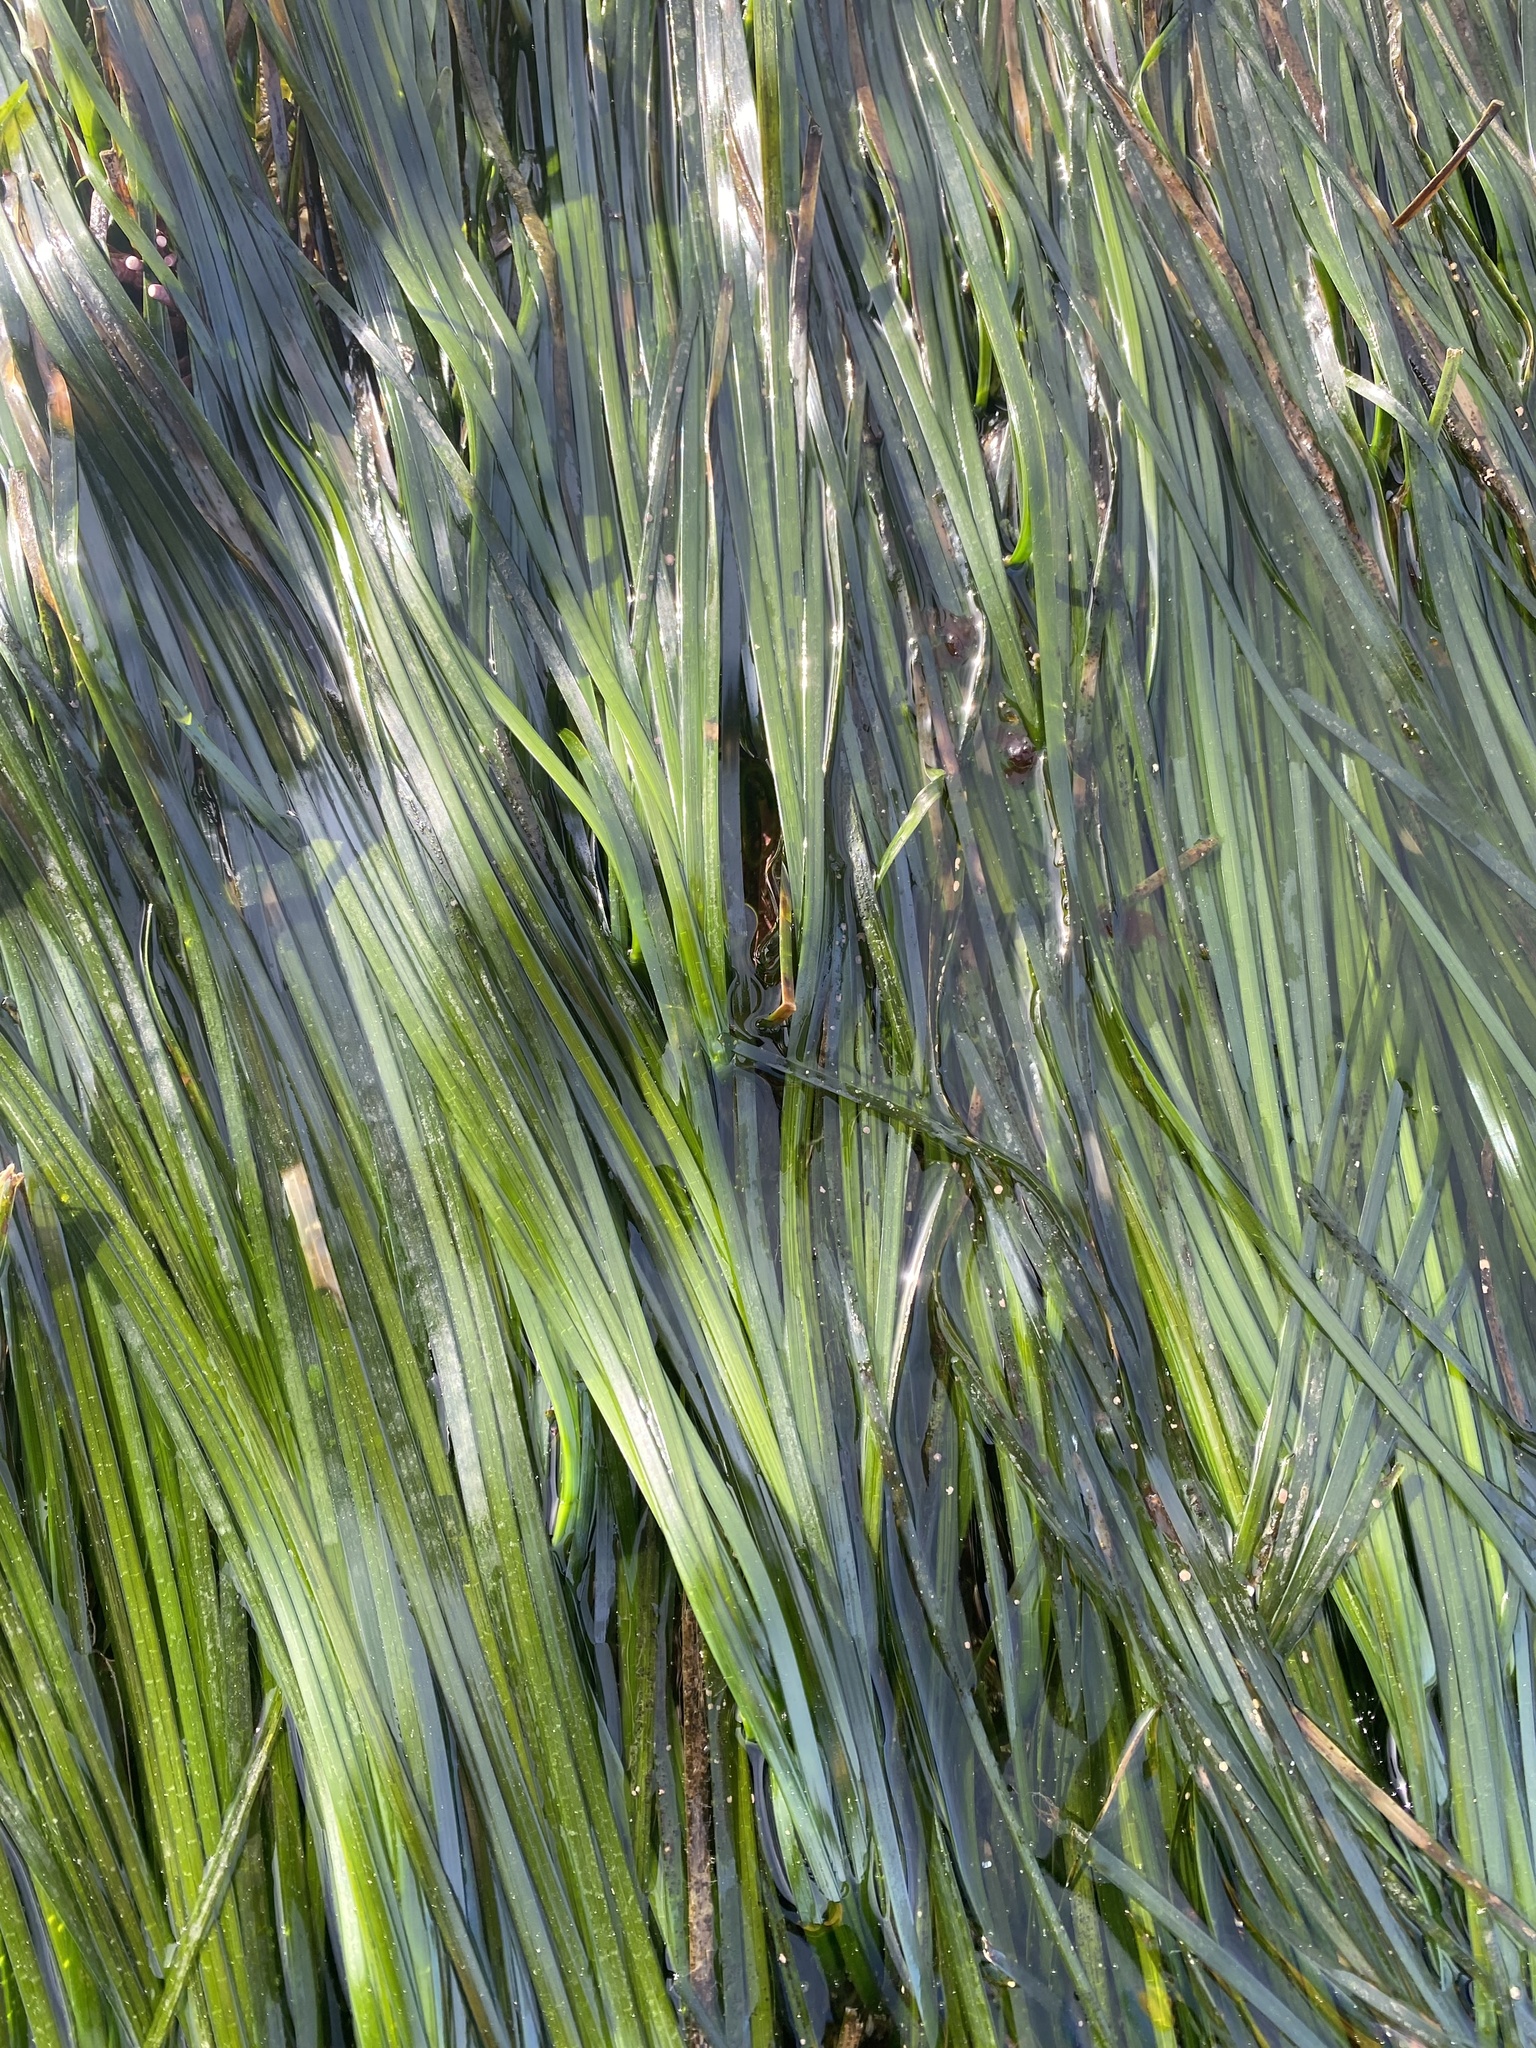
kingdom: Plantae
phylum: Tracheophyta
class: Liliopsida
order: Alismatales
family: Zosteraceae
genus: Phyllospadix
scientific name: Phyllospadix scouleri
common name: Species code: ps
